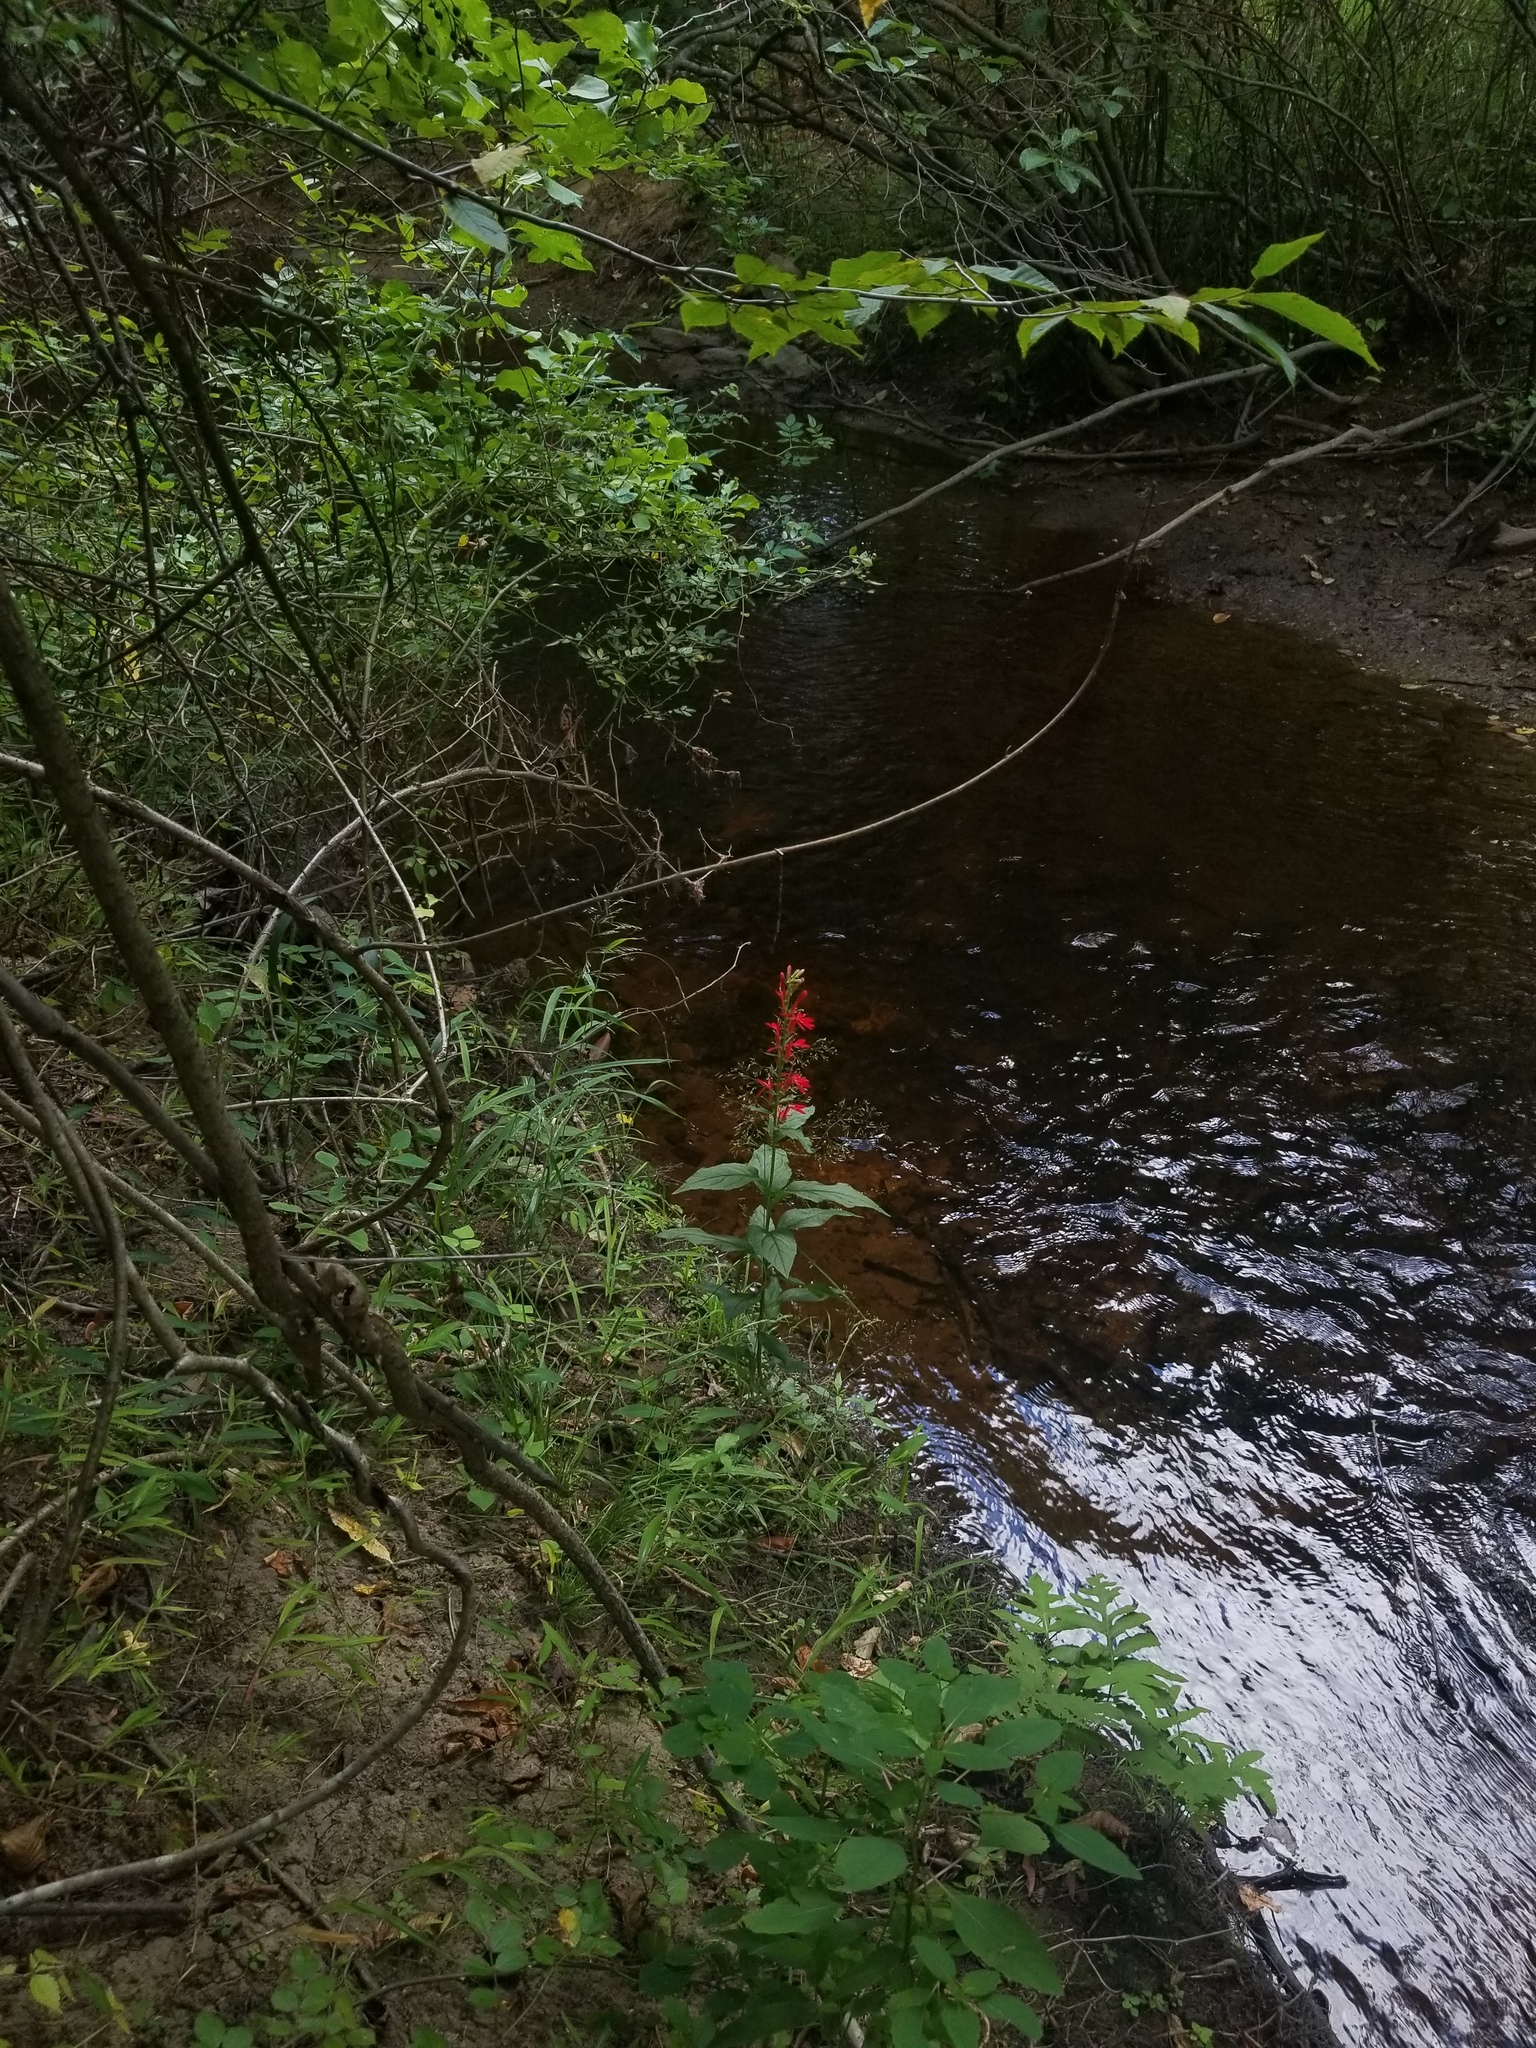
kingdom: Plantae
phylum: Tracheophyta
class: Magnoliopsida
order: Asterales
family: Campanulaceae
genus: Lobelia
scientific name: Lobelia cardinalis
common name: Cardinal flower
